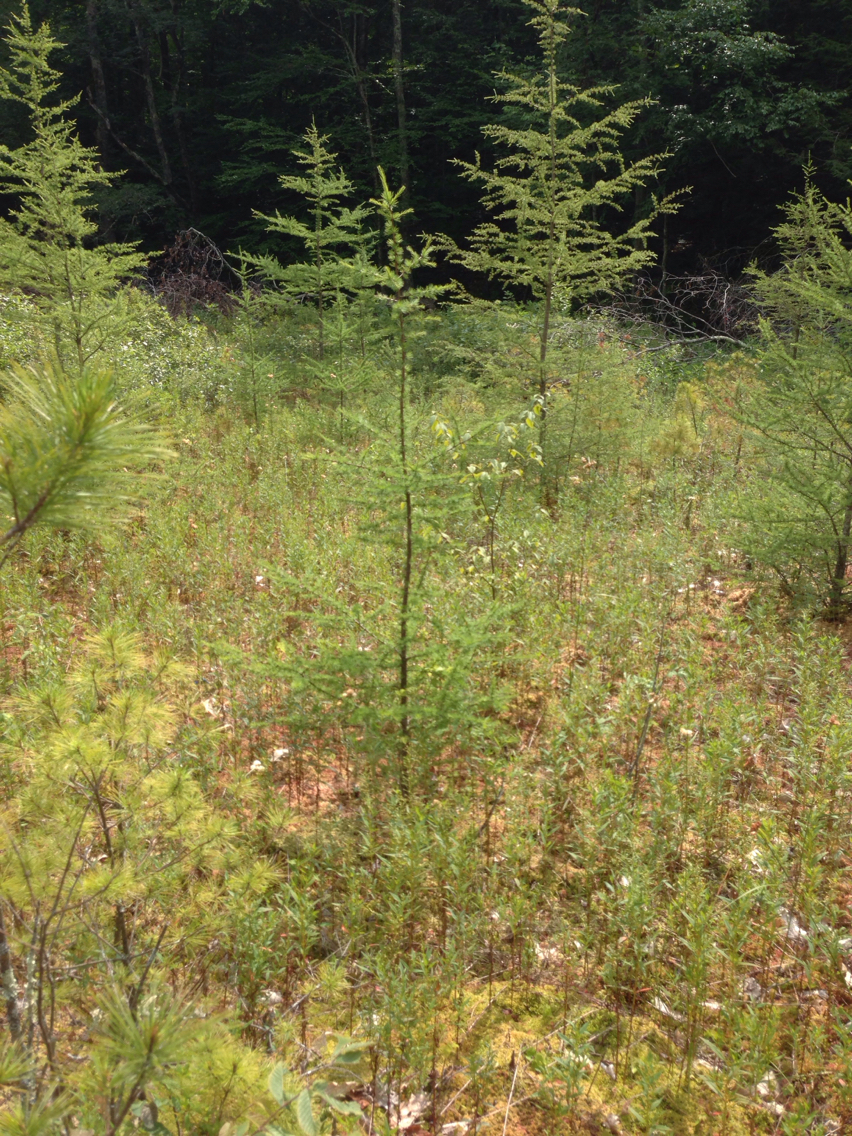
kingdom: Plantae
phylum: Tracheophyta
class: Pinopsida
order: Pinales
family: Pinaceae
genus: Larix
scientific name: Larix laricina
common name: American larch
